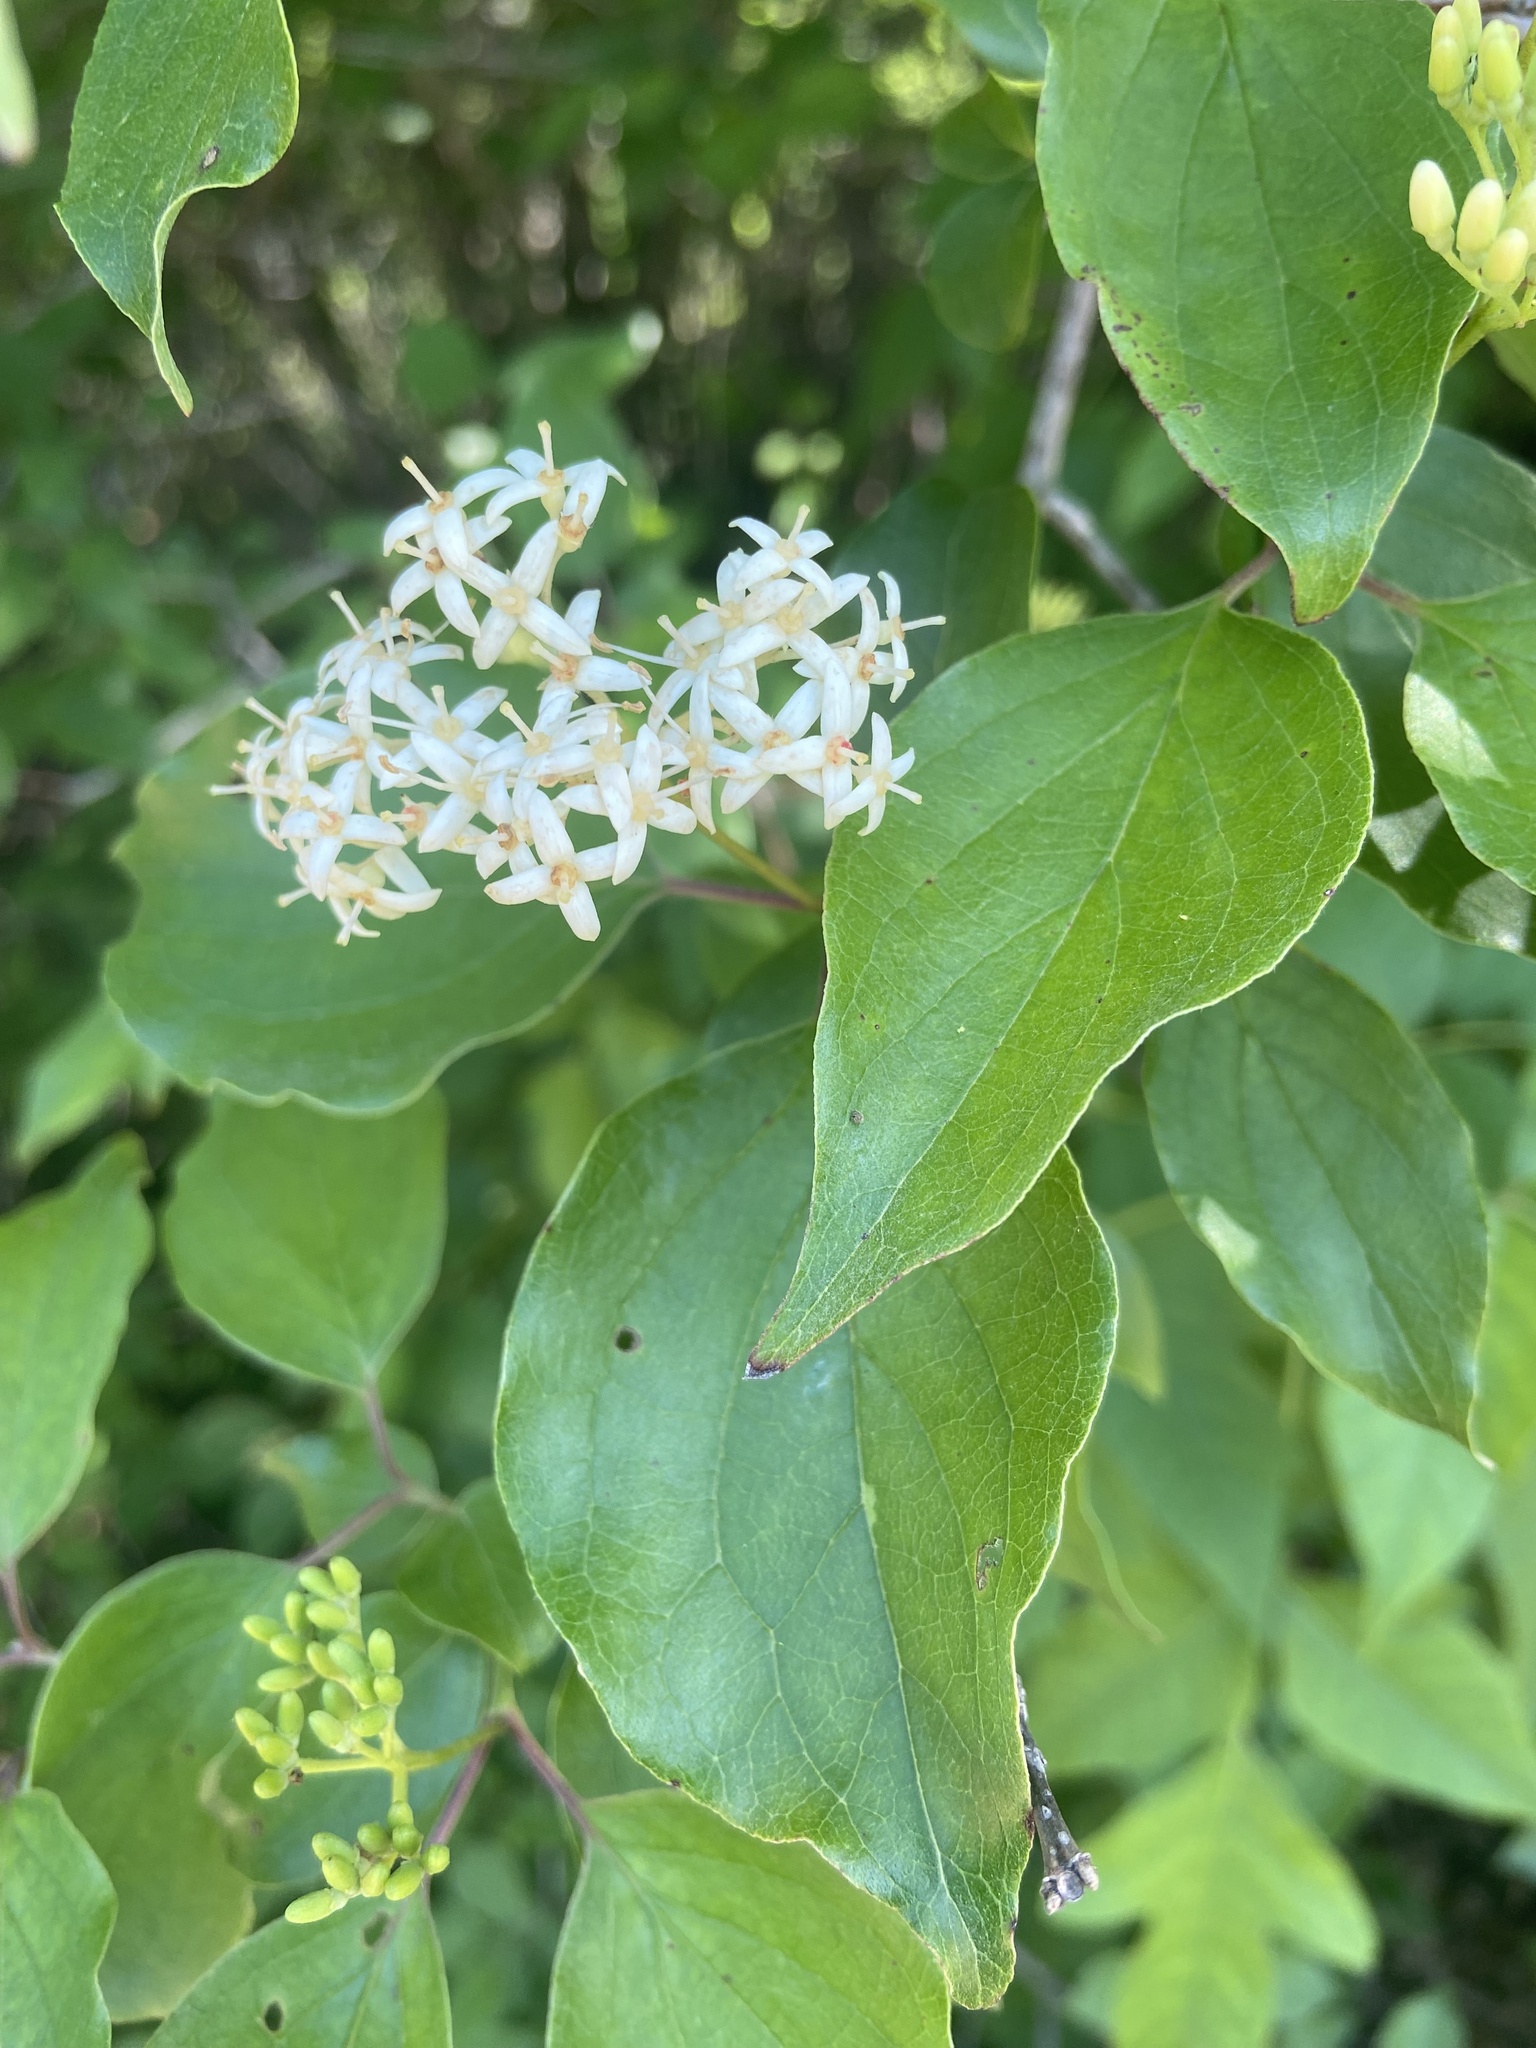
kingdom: Plantae
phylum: Tracheophyta
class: Magnoliopsida
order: Cornales
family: Cornaceae
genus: Cornus
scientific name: Cornus drummondii
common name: Rough-leaf dogwood
